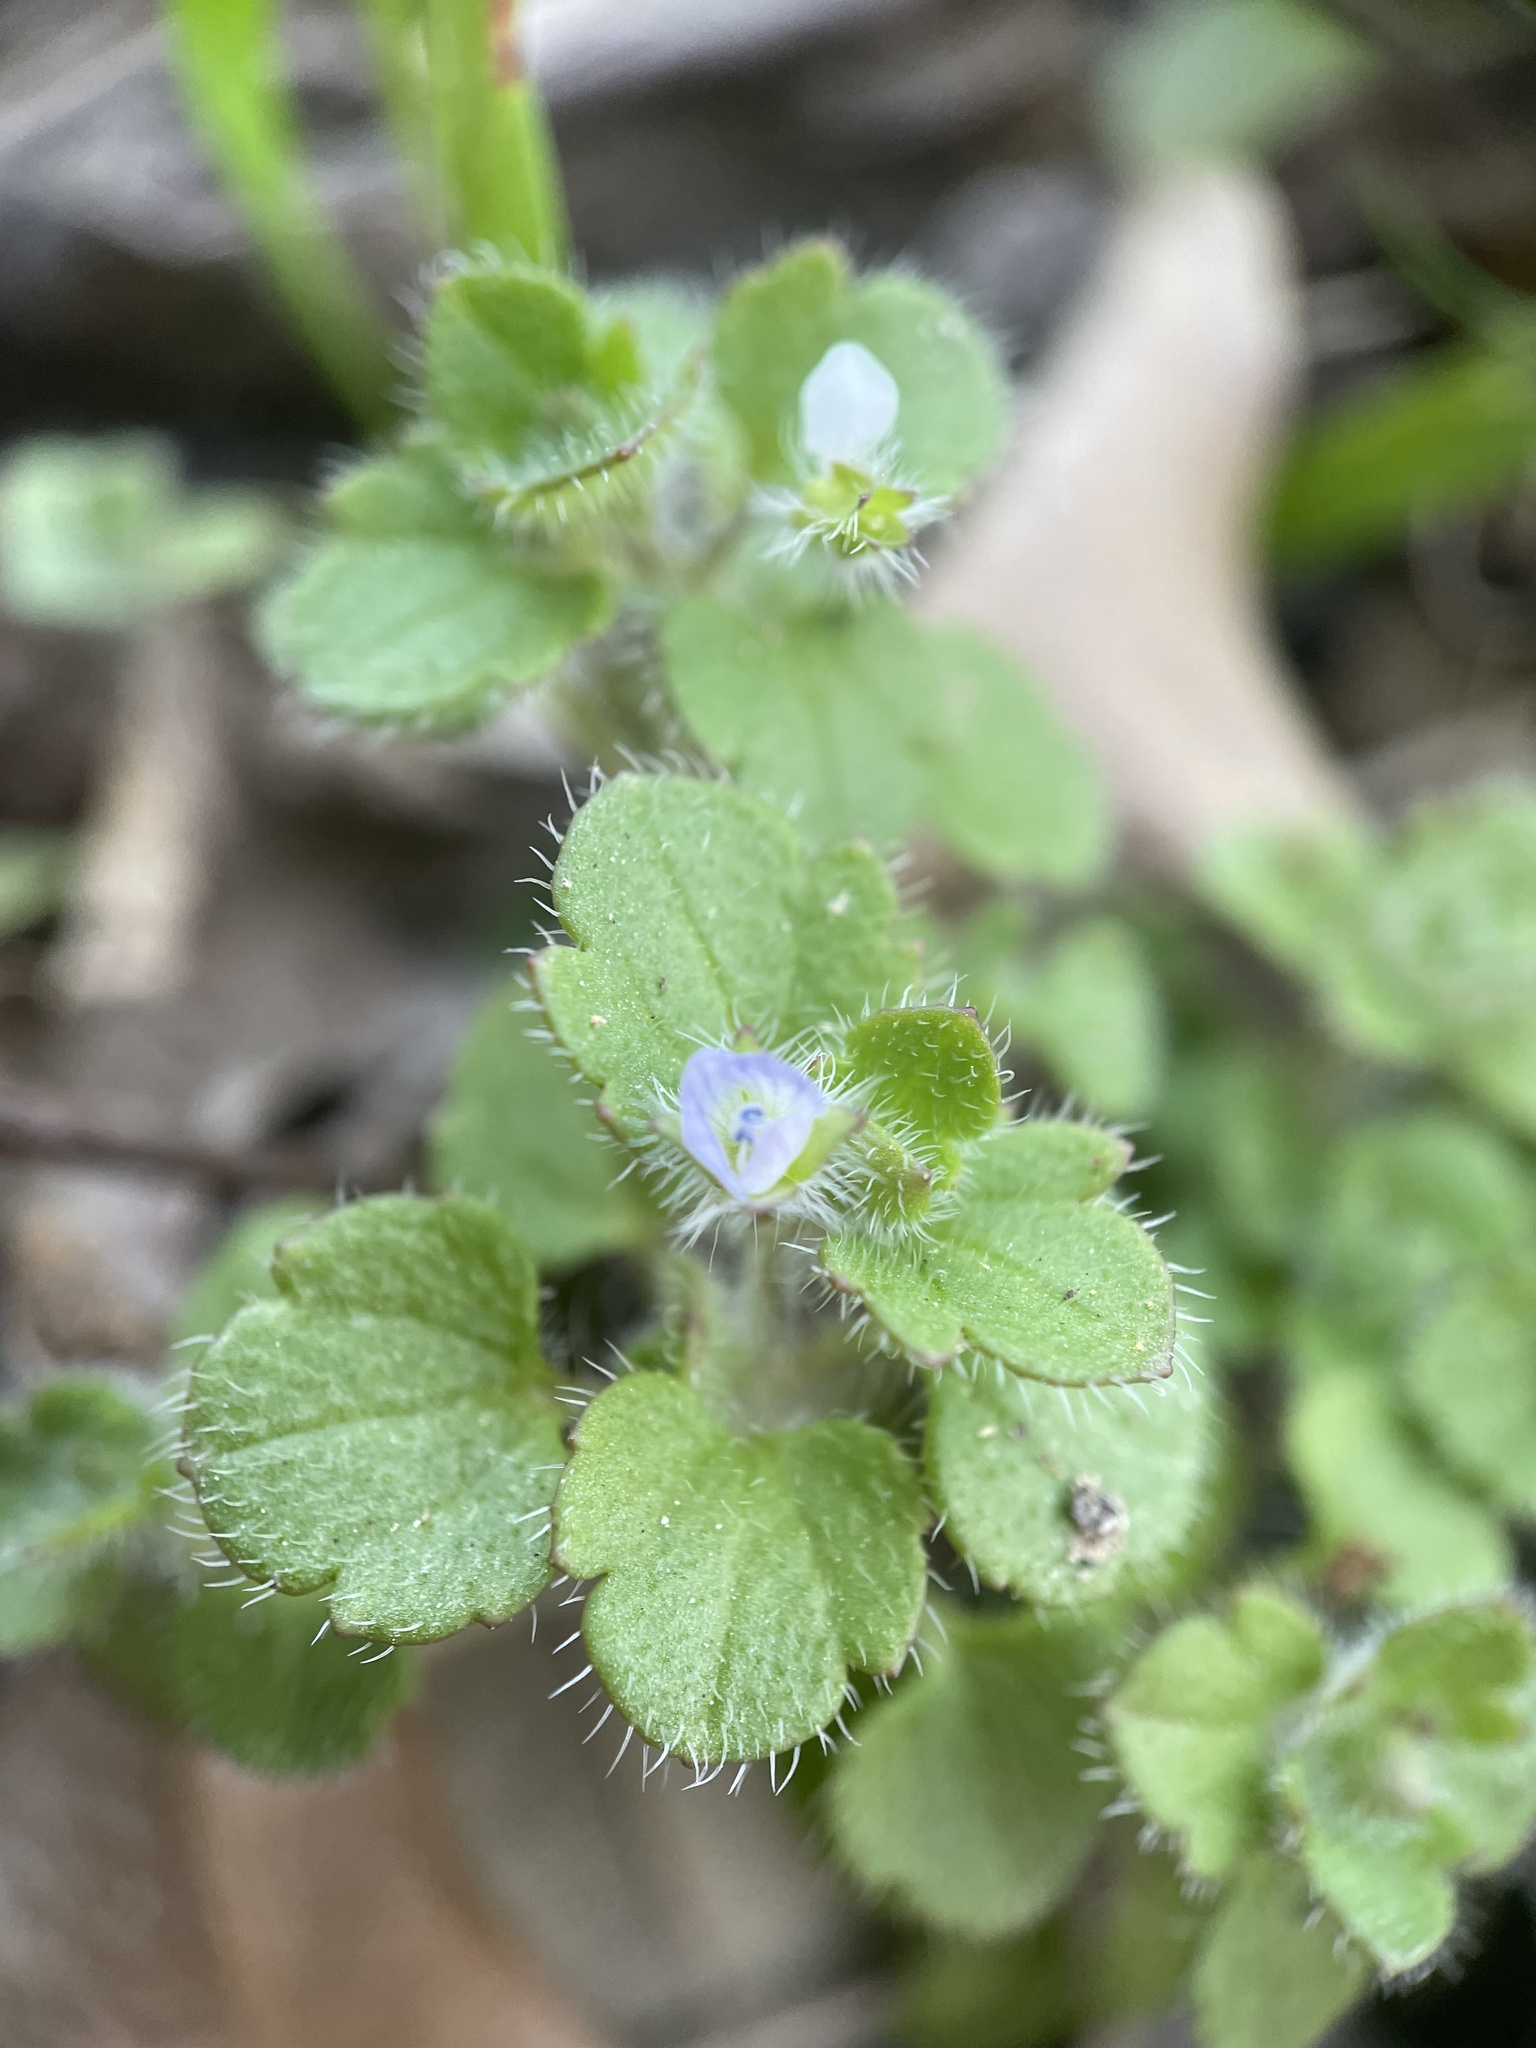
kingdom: Plantae
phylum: Tracheophyta
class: Magnoliopsida
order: Lamiales
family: Plantaginaceae
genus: Veronica
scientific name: Veronica hederifolia
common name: Ivy-leaved speedwell
